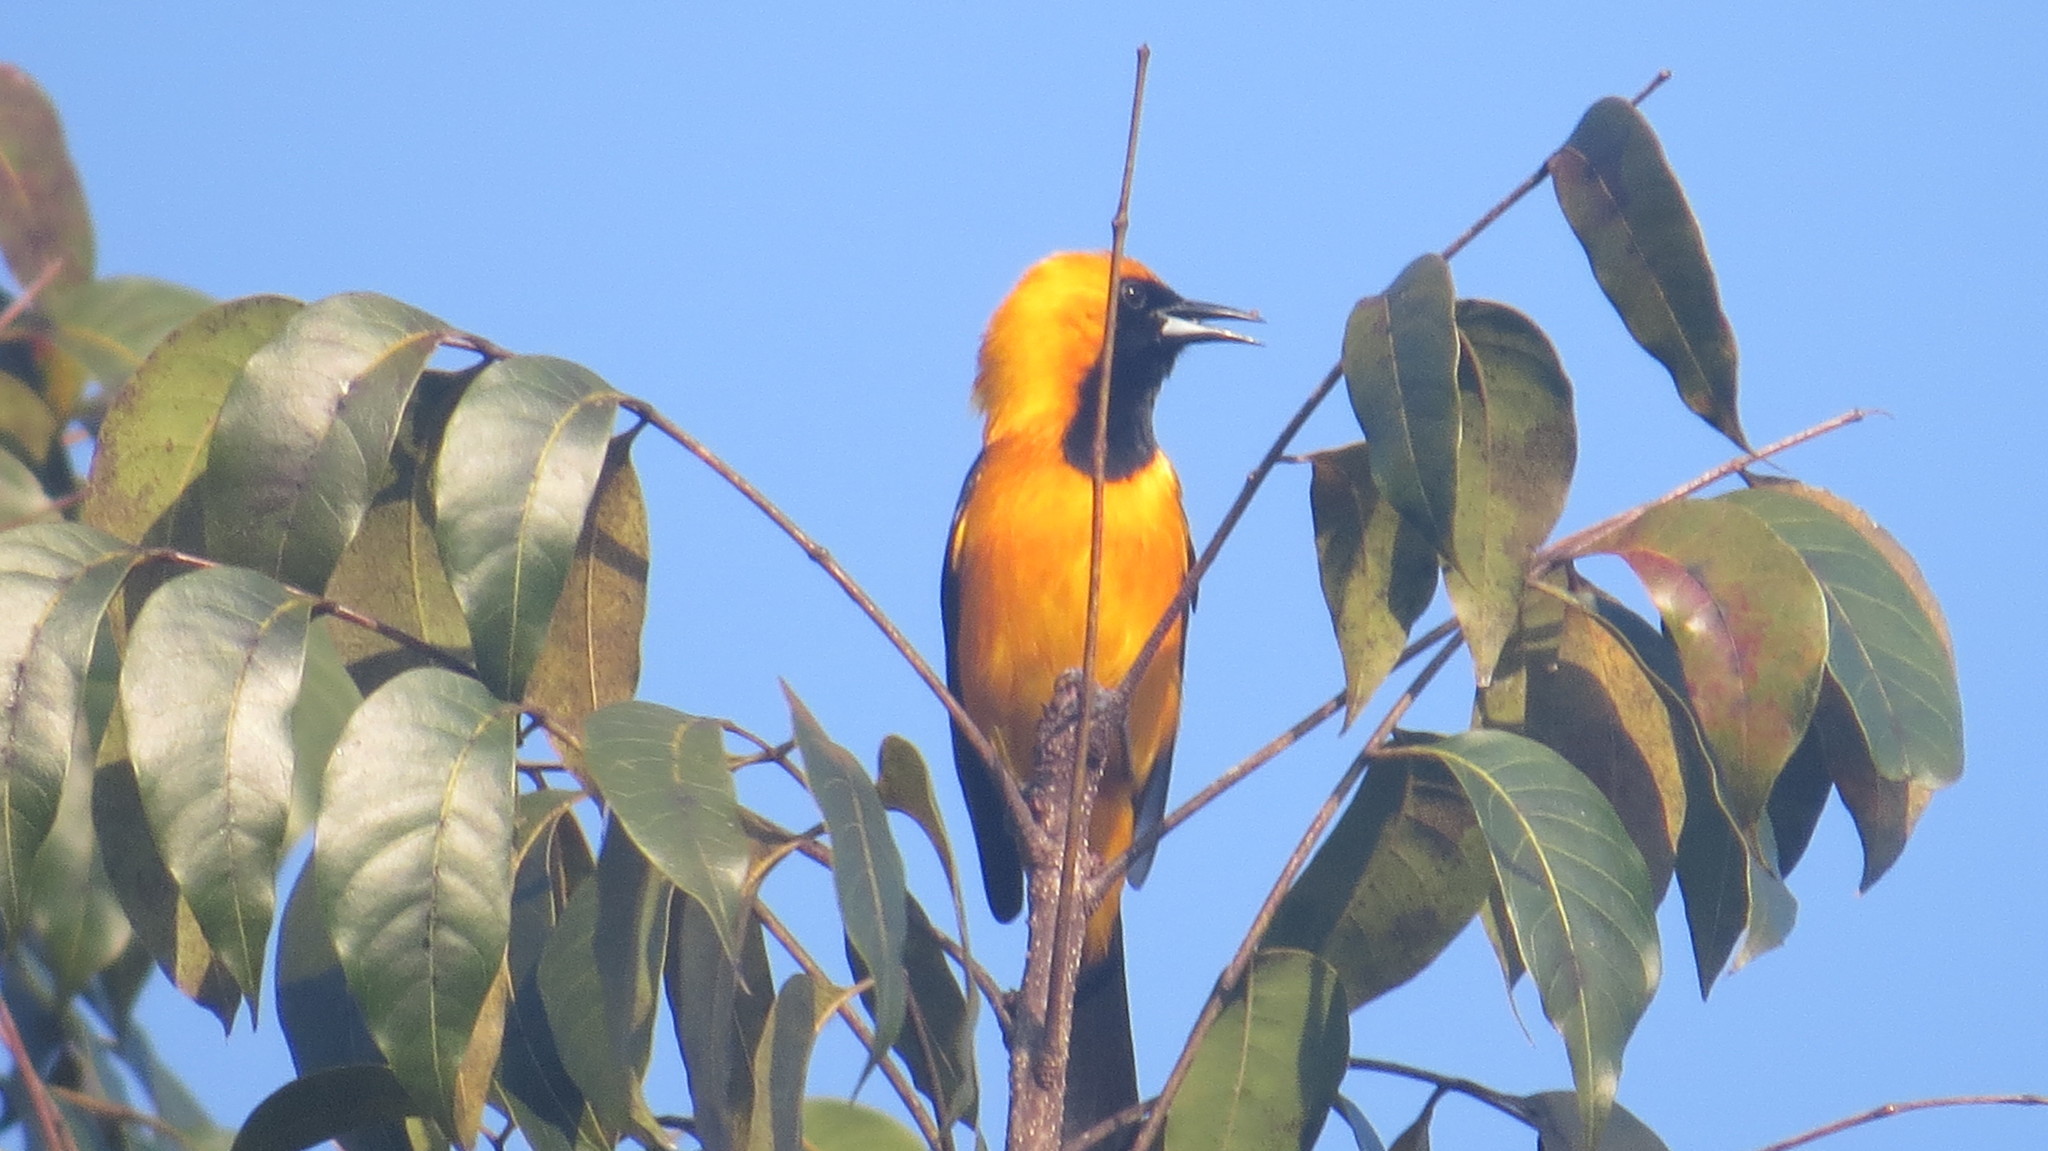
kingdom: Animalia
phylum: Chordata
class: Aves
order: Passeriformes
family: Icteridae
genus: Icterus
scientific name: Icterus cucullatus
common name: Hooded oriole
